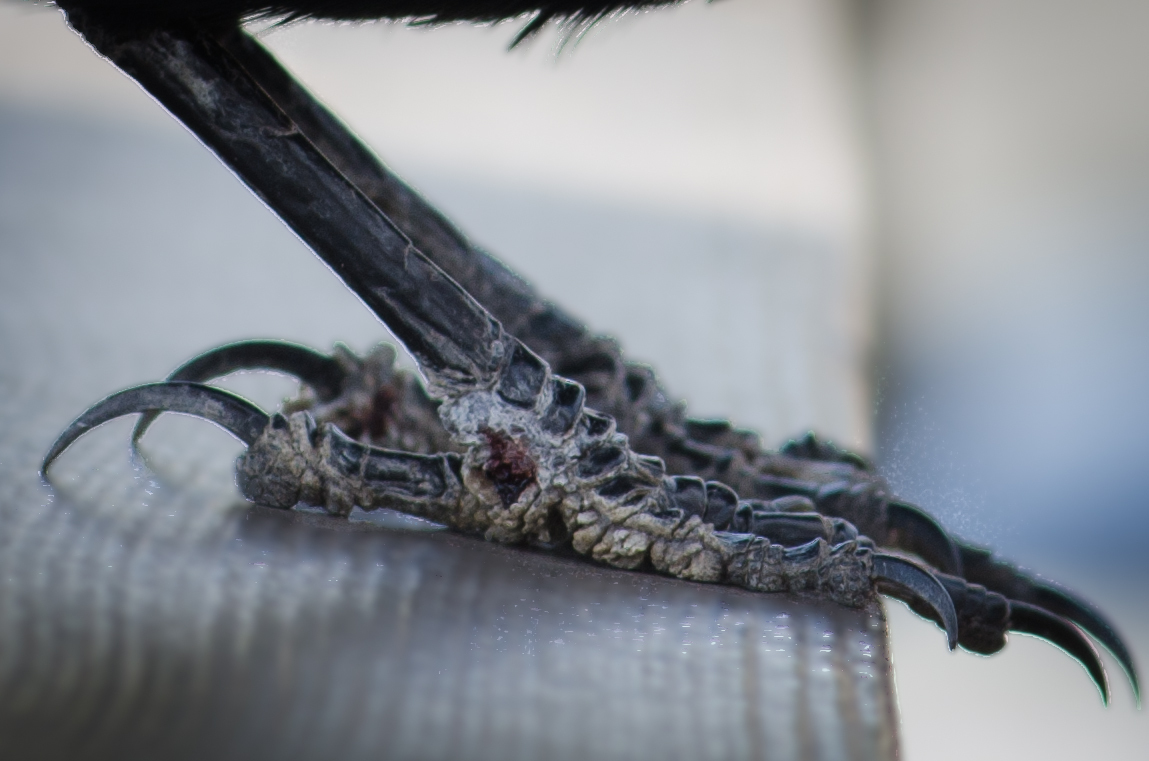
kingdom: Animalia
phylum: Chordata
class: Aves
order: Passeriformes
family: Icteridae
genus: Euphagus
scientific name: Euphagus cyanocephalus
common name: Brewer's blackbird
